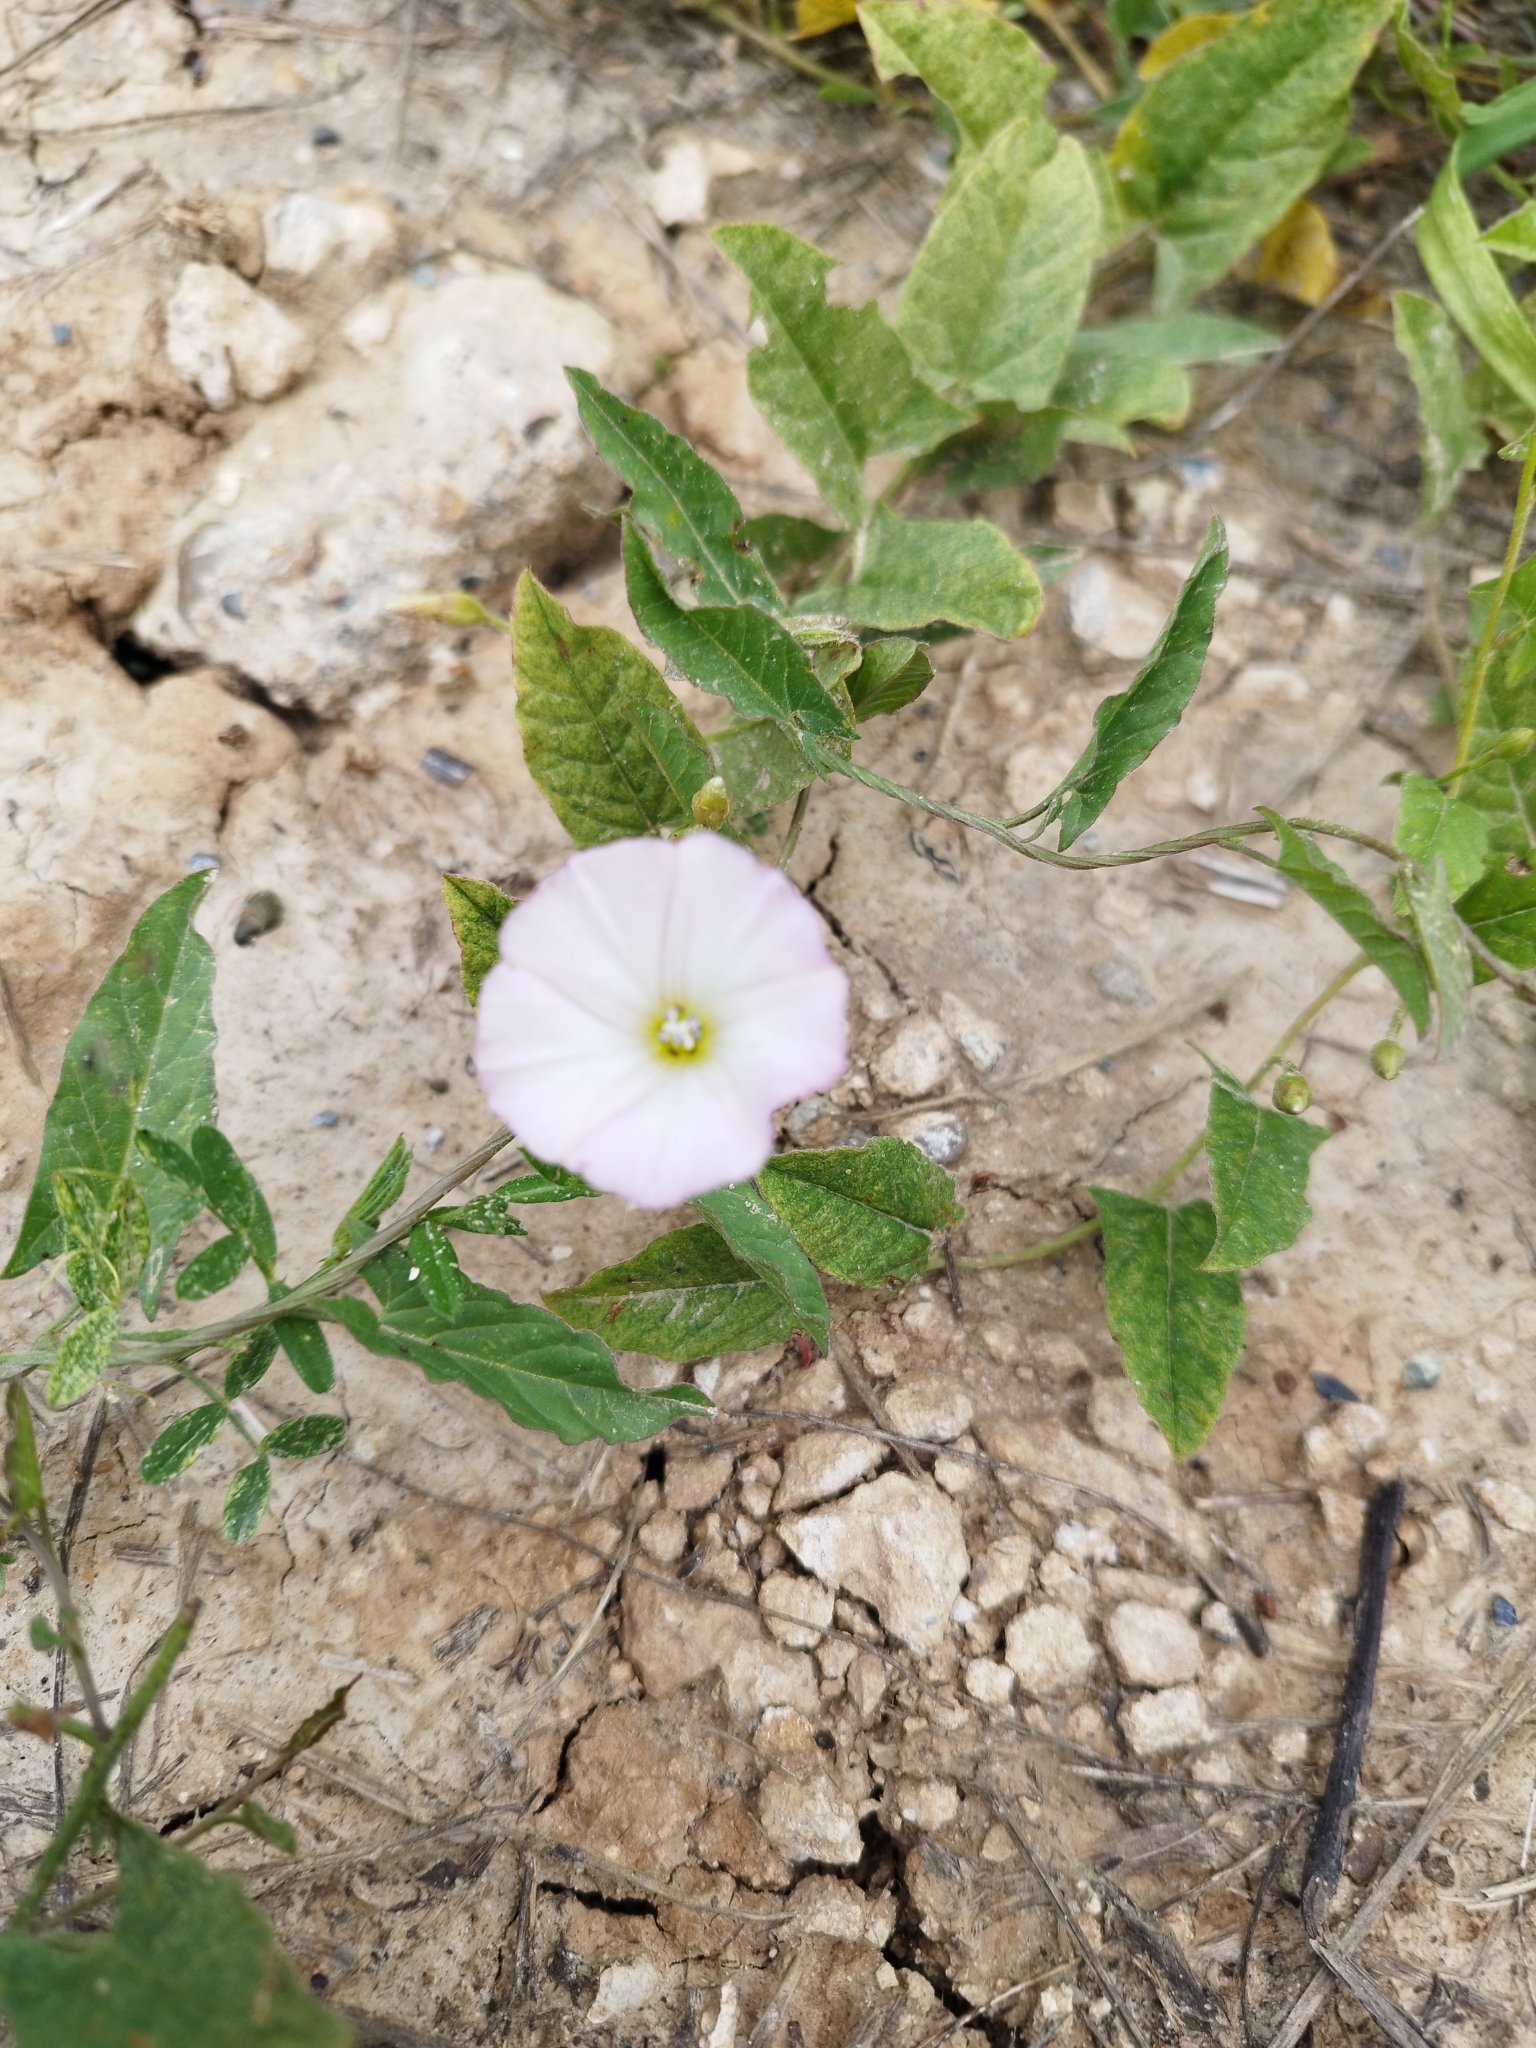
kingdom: Plantae
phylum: Tracheophyta
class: Magnoliopsida
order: Solanales
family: Convolvulaceae
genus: Convolvulus
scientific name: Convolvulus arvensis
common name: Field bindweed
